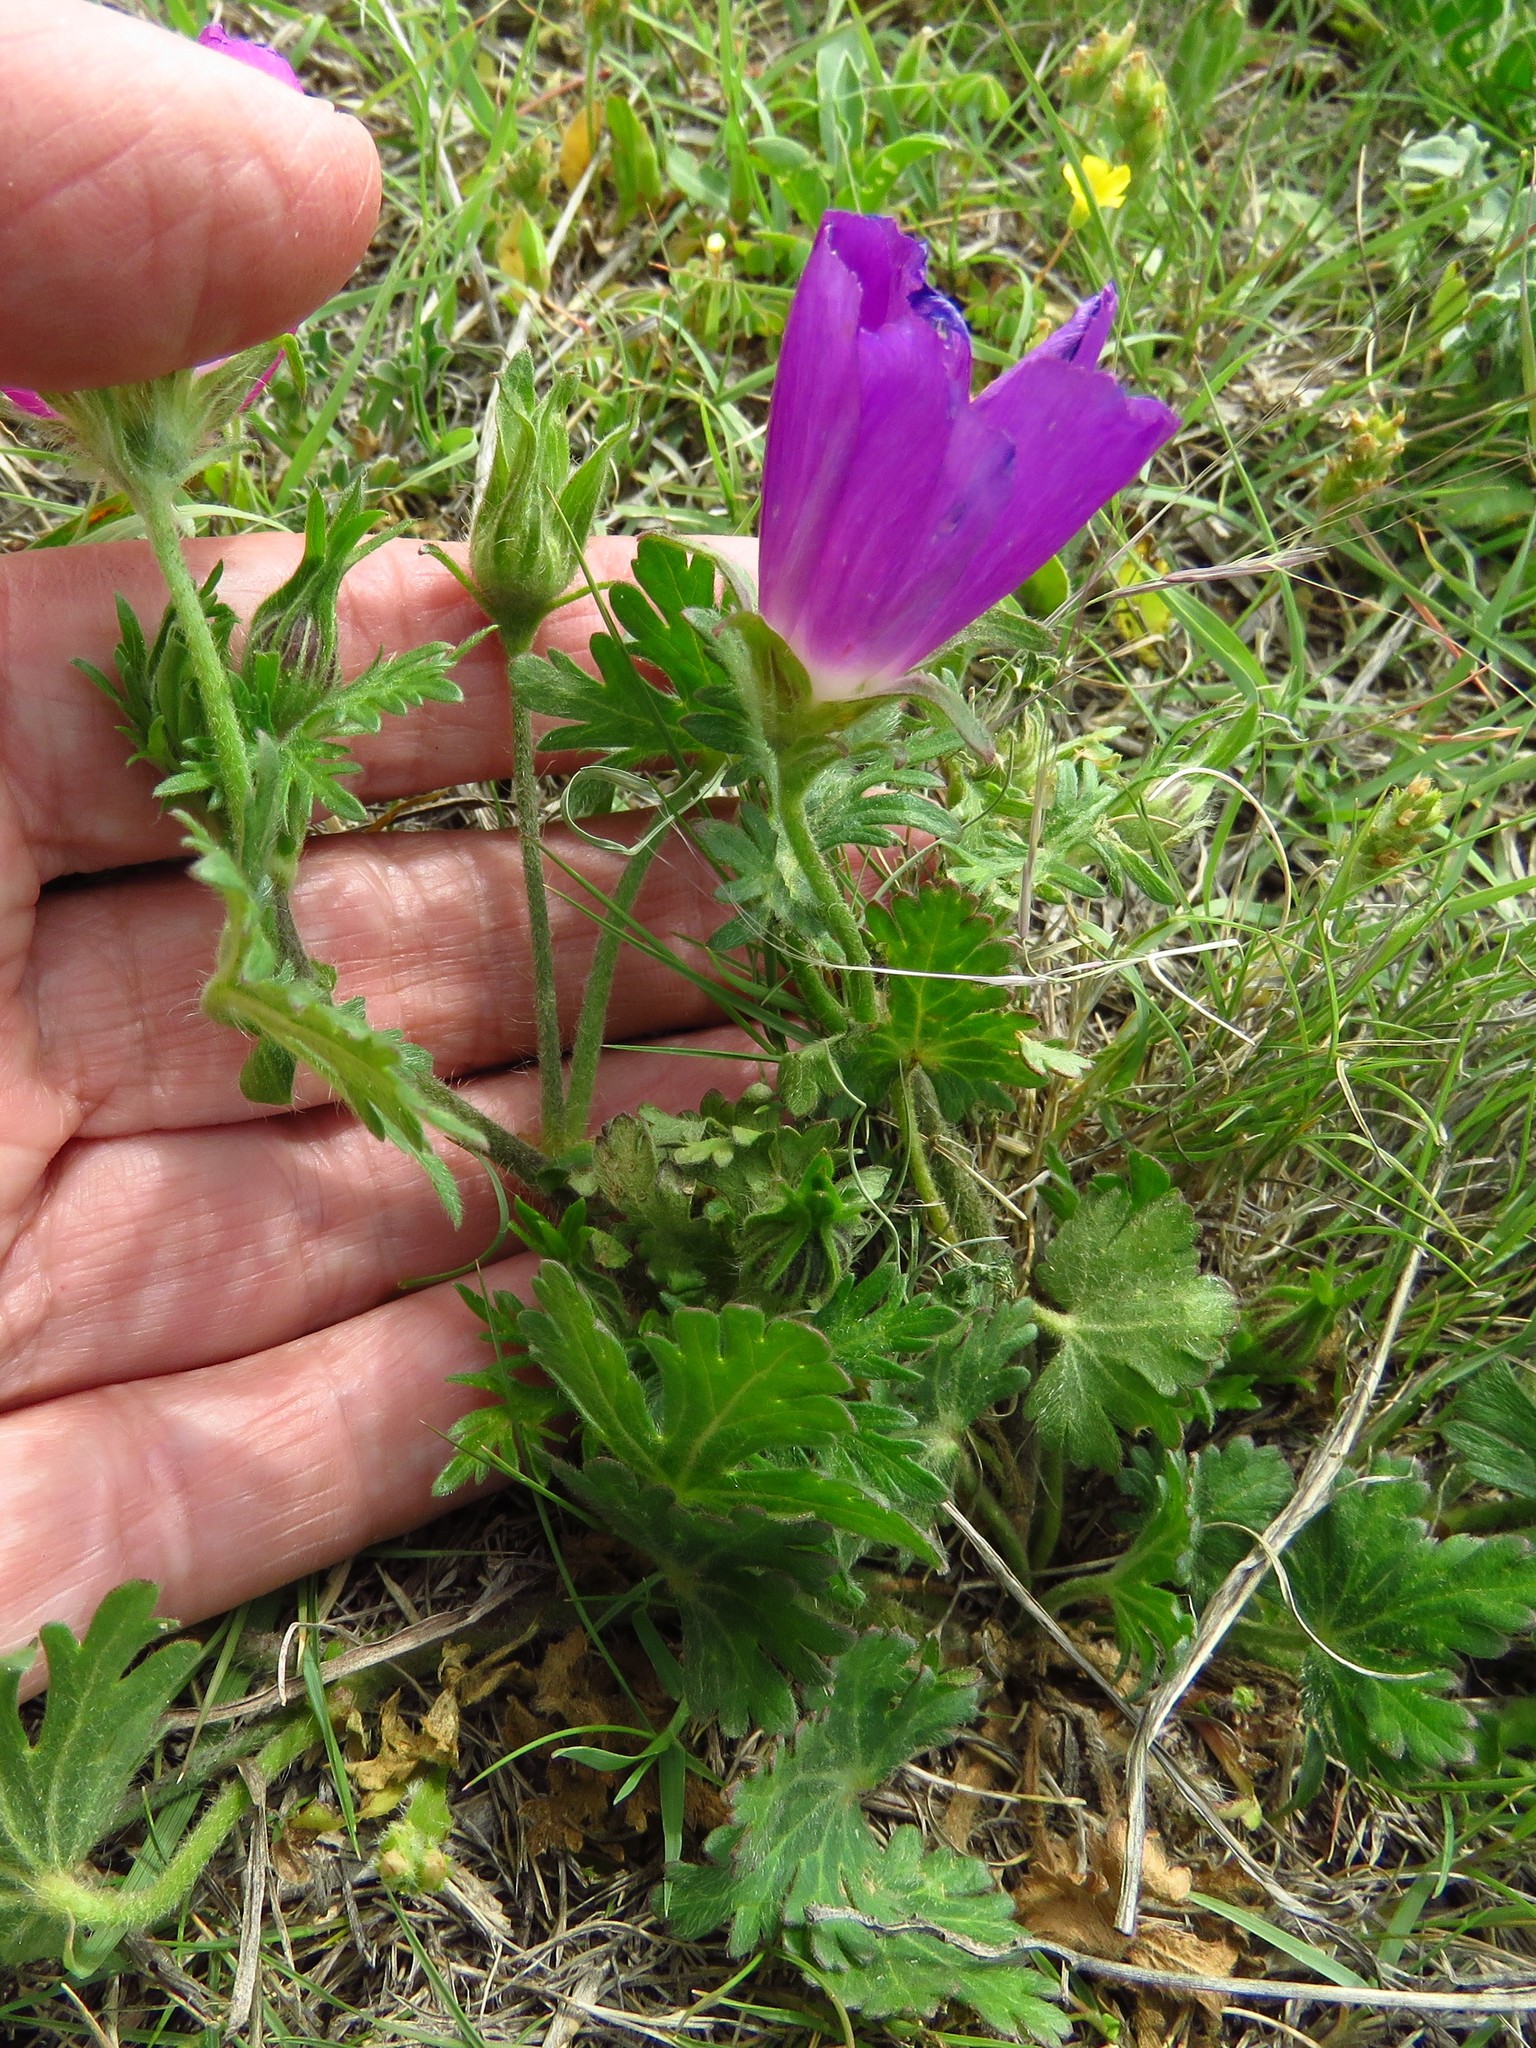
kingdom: Plantae
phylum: Tracheophyta
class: Magnoliopsida
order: Malvales
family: Malvaceae
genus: Callirhoe
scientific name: Callirhoe involucrata
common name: Purple poppy-mallow
